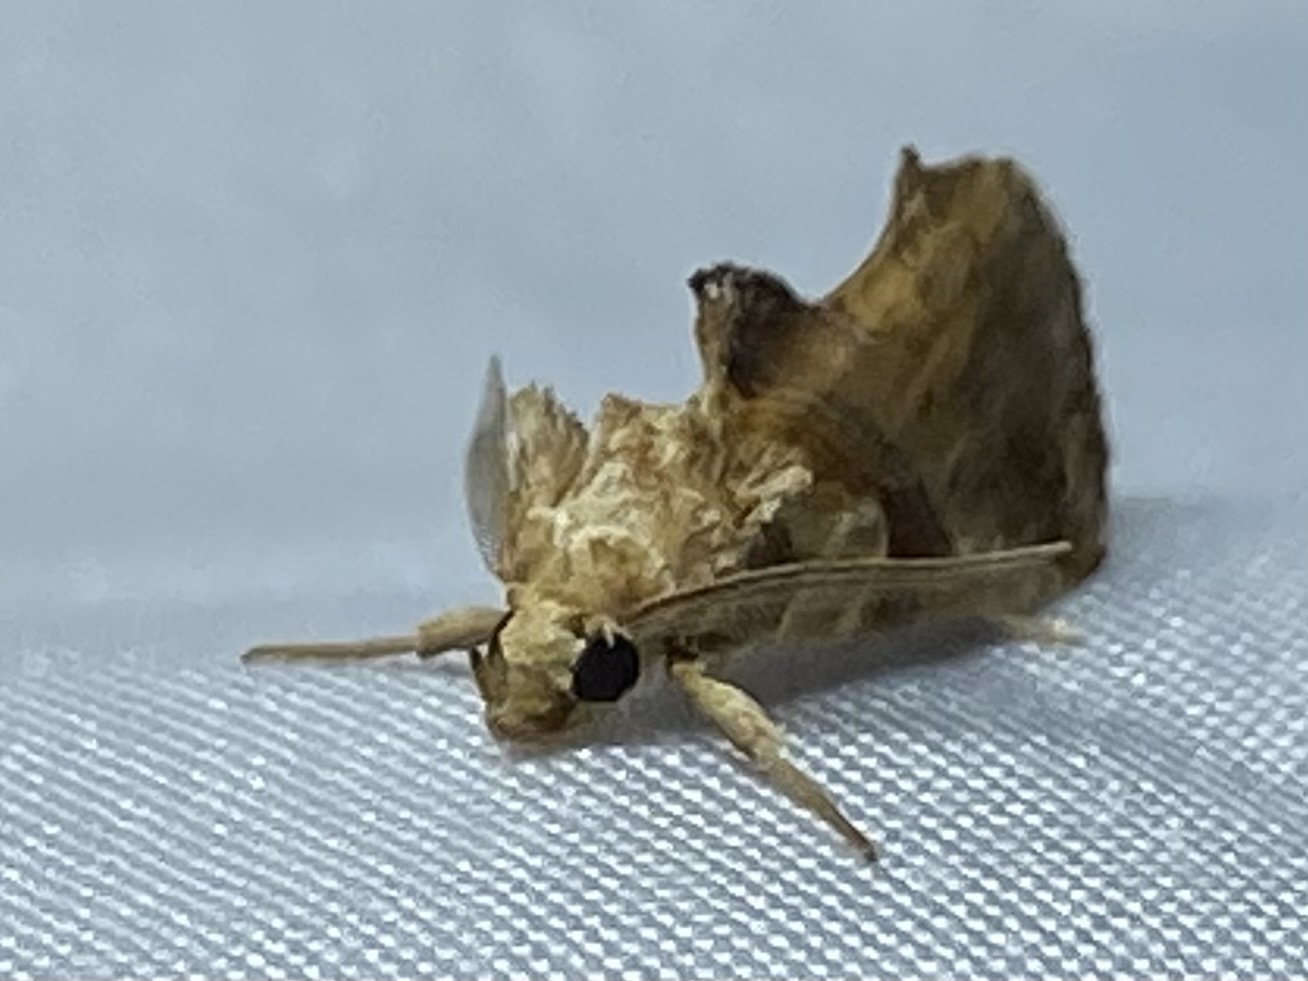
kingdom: Animalia
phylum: Arthropoda
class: Insecta
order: Lepidoptera
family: Erebidae
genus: Plusiodonta
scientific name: Plusiodonta compressipalpis
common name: Moonseed moth
